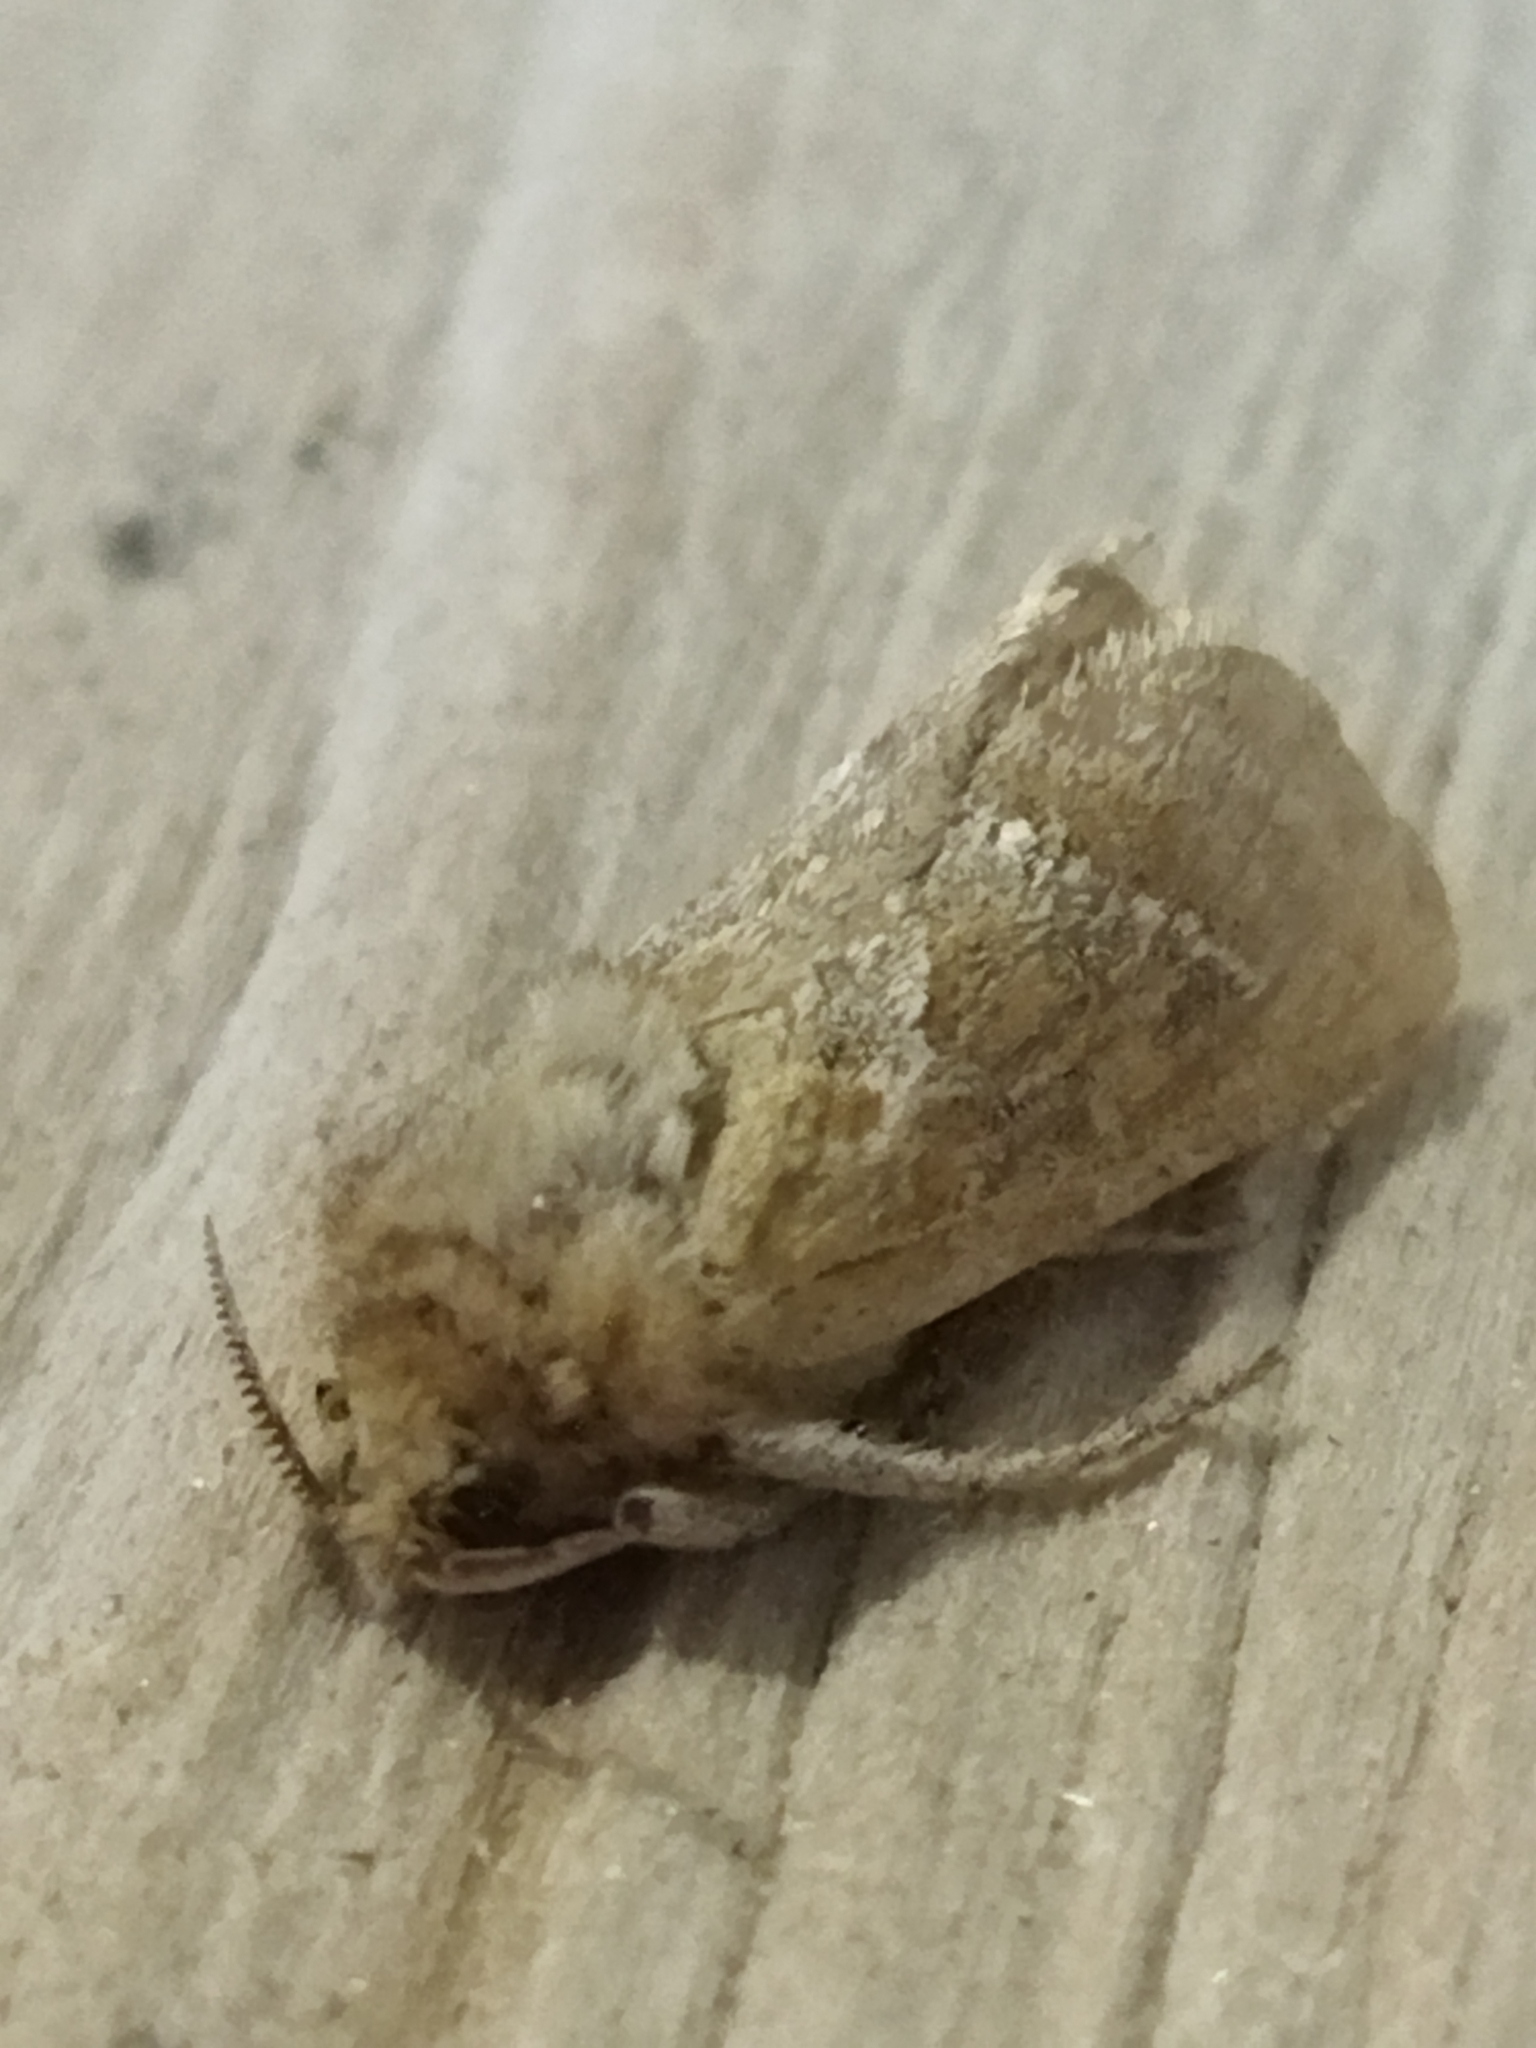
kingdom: Animalia
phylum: Arthropoda
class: Insecta
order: Lepidoptera
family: Hepialidae
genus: Triodia
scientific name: Triodia amasinus
